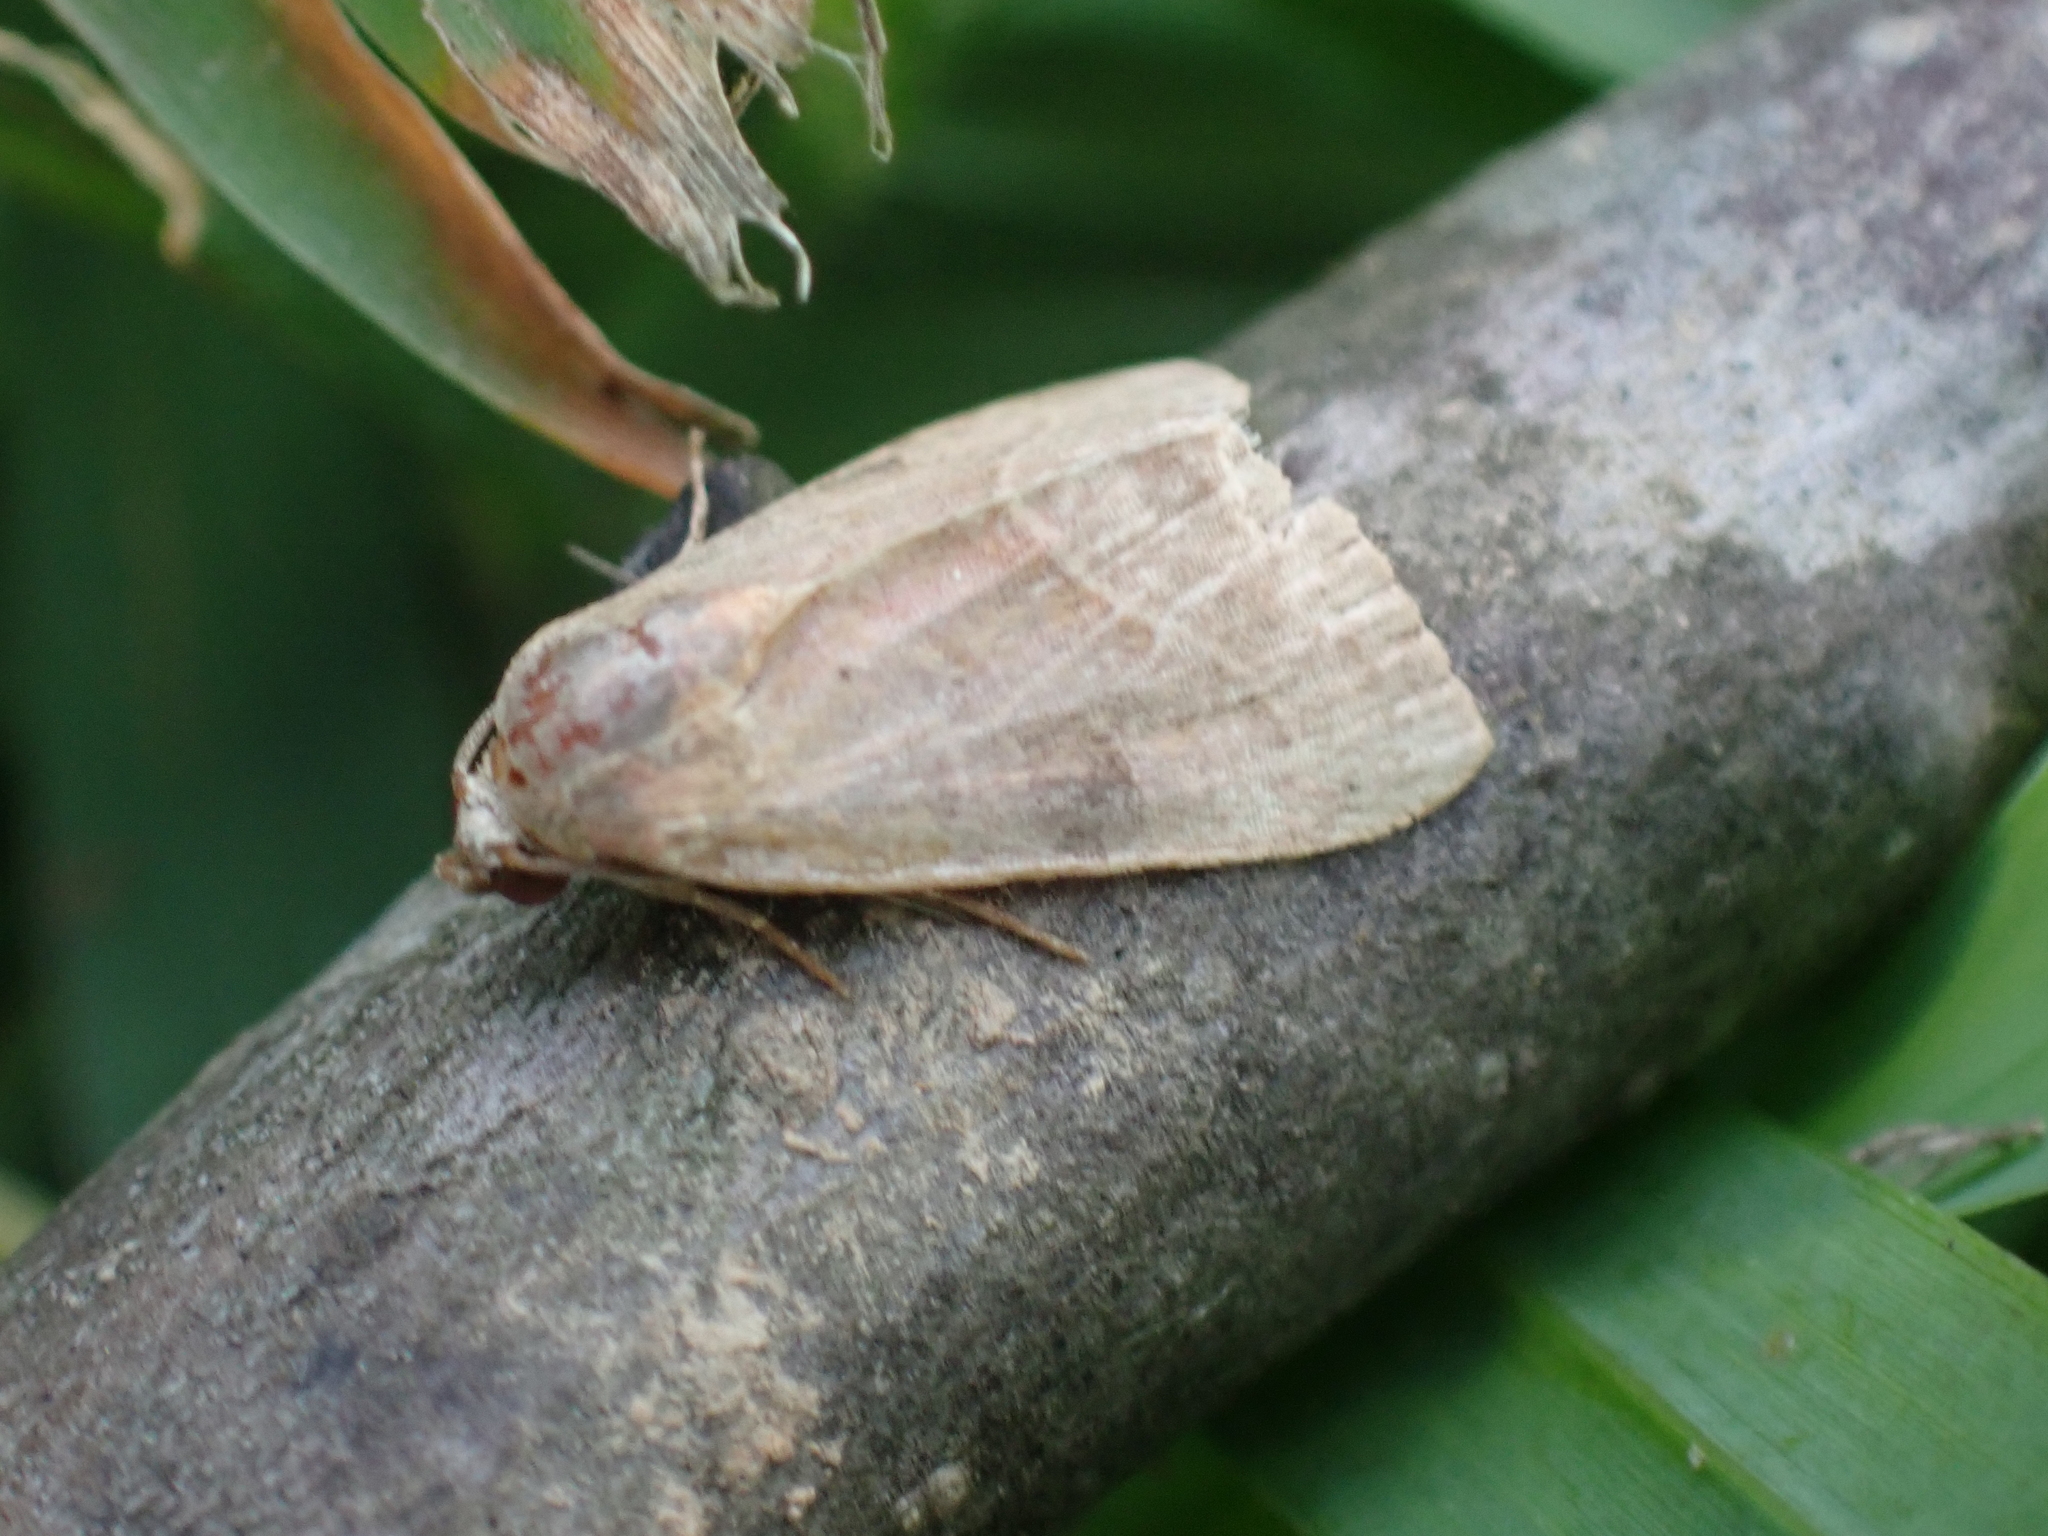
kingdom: Animalia
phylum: Arthropoda
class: Insecta
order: Lepidoptera
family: Noctuidae
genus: Galgula
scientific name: Galgula partita
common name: Wedgeling
